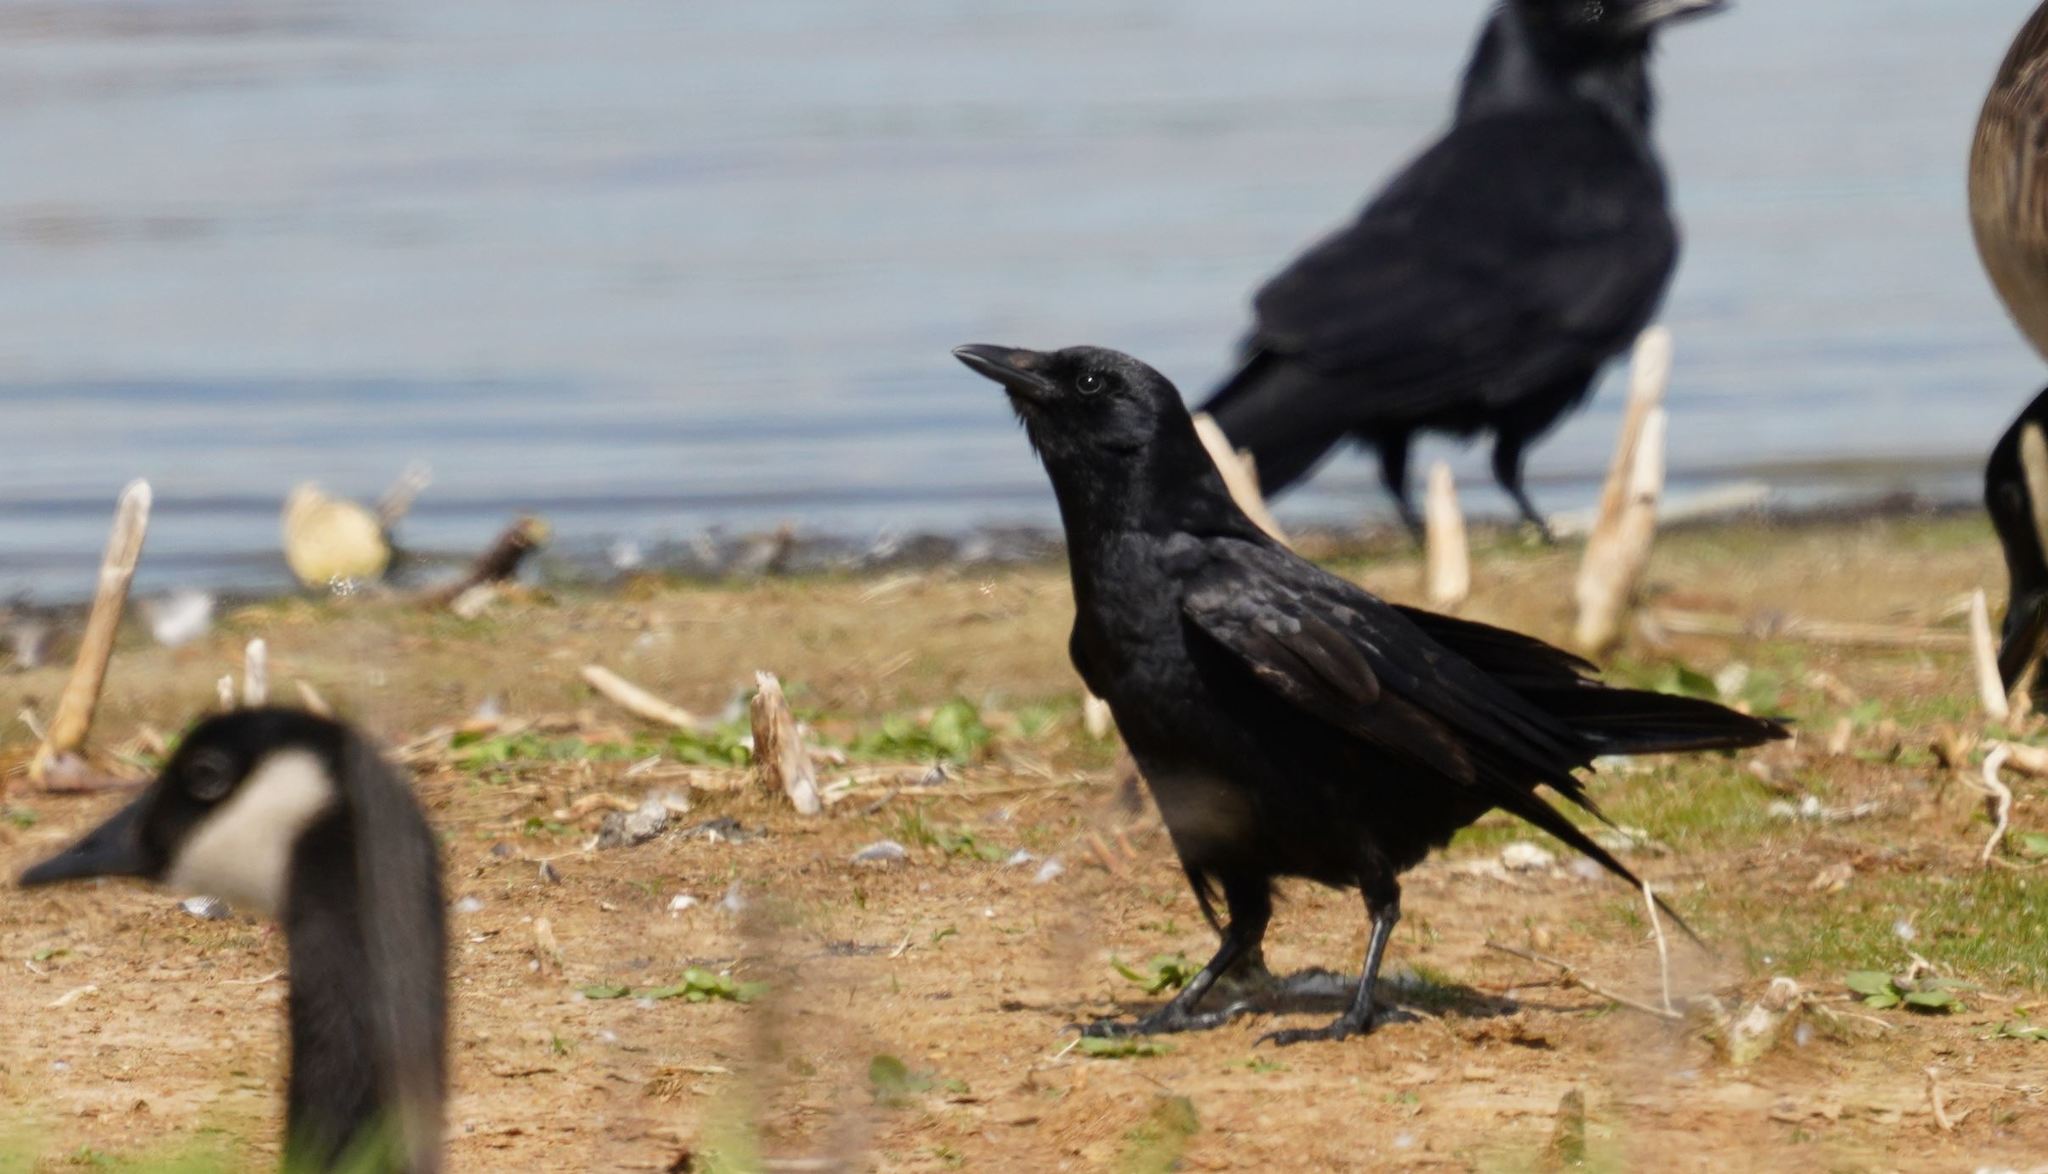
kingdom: Animalia
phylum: Chordata
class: Aves
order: Passeriformes
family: Corvidae
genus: Corvus
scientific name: Corvus ossifragus
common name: Fish crow
